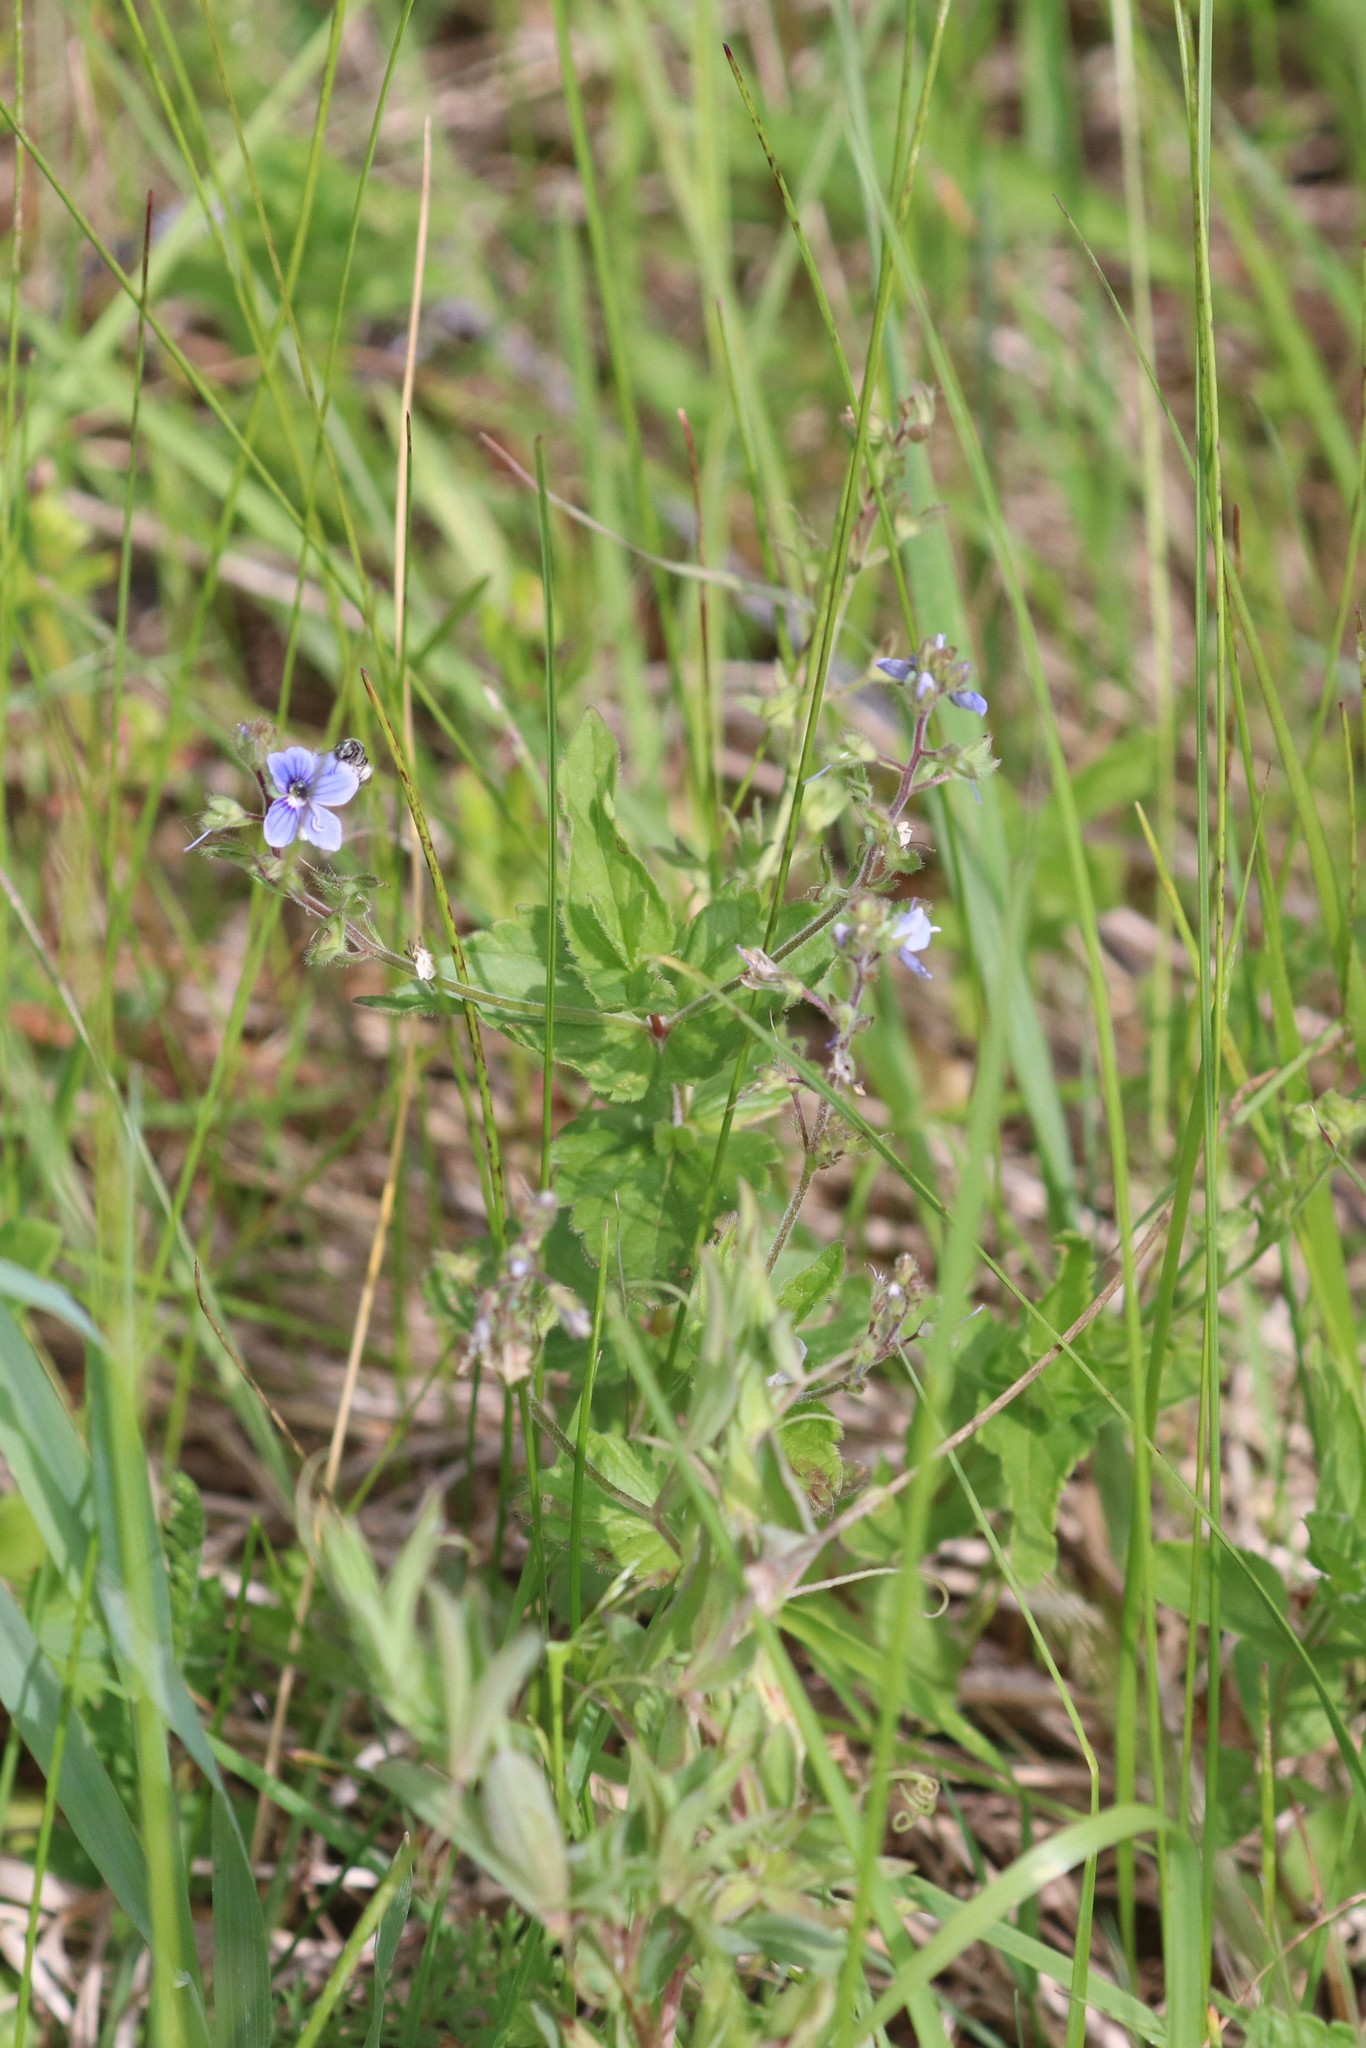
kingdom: Plantae
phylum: Tracheophyta
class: Magnoliopsida
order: Lamiales
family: Plantaginaceae
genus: Veronica
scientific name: Veronica chamaedrys
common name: Germander speedwell
